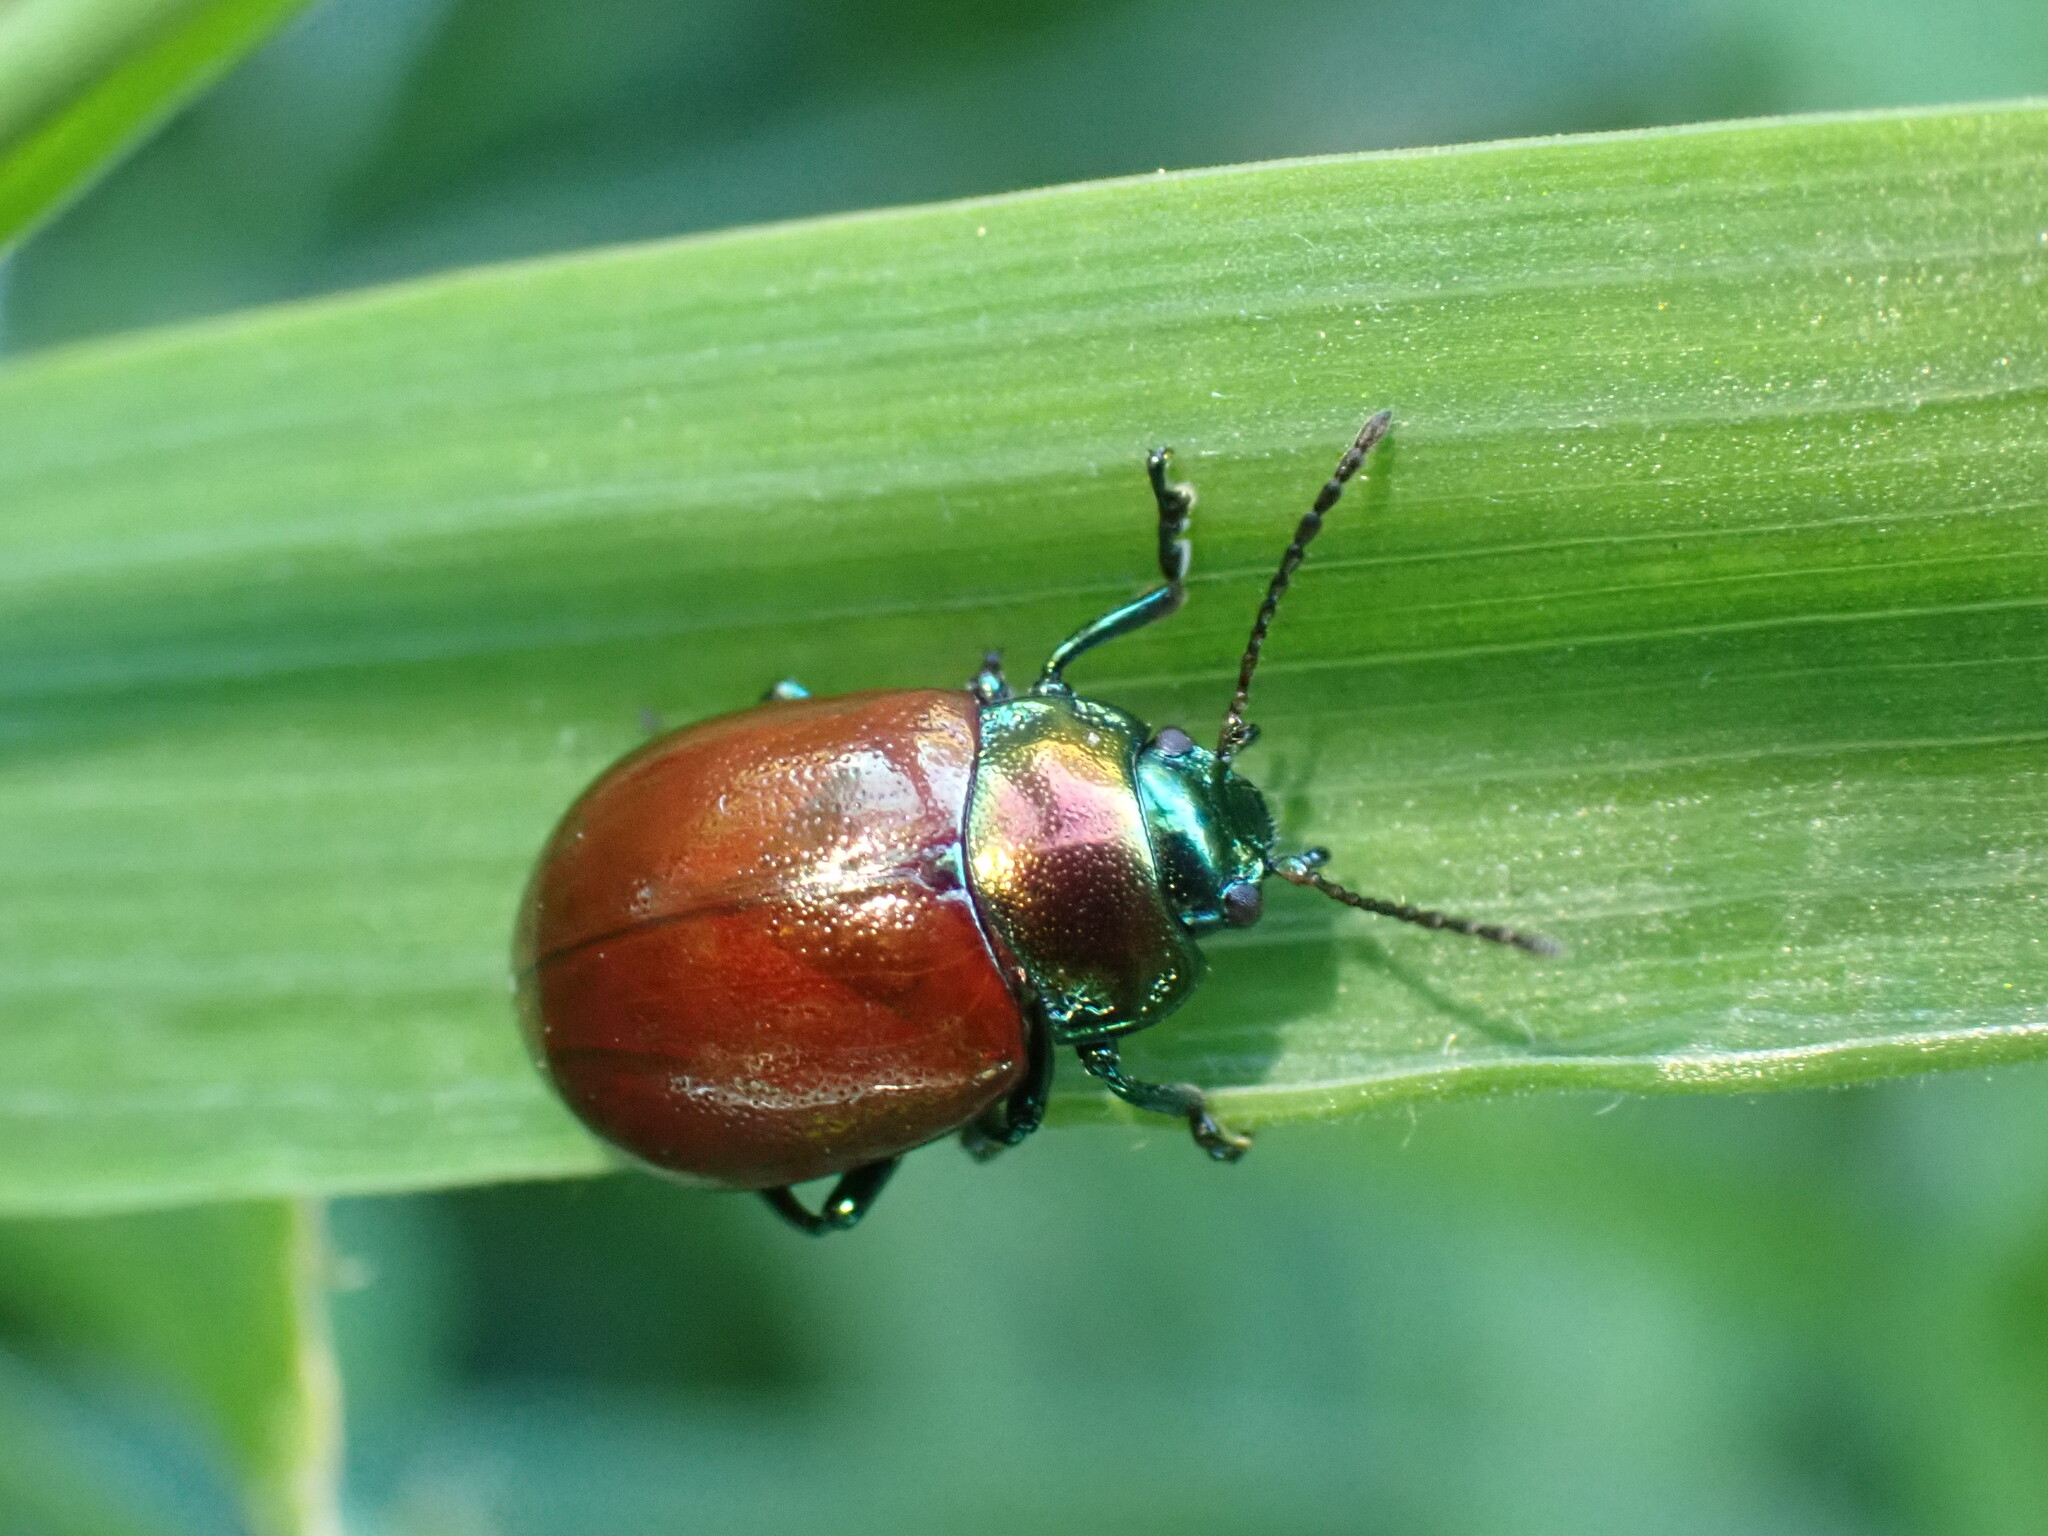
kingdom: Animalia
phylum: Arthropoda
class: Insecta
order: Coleoptera
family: Chrysomelidae
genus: Chrysomela
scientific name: Chrysomela polita
